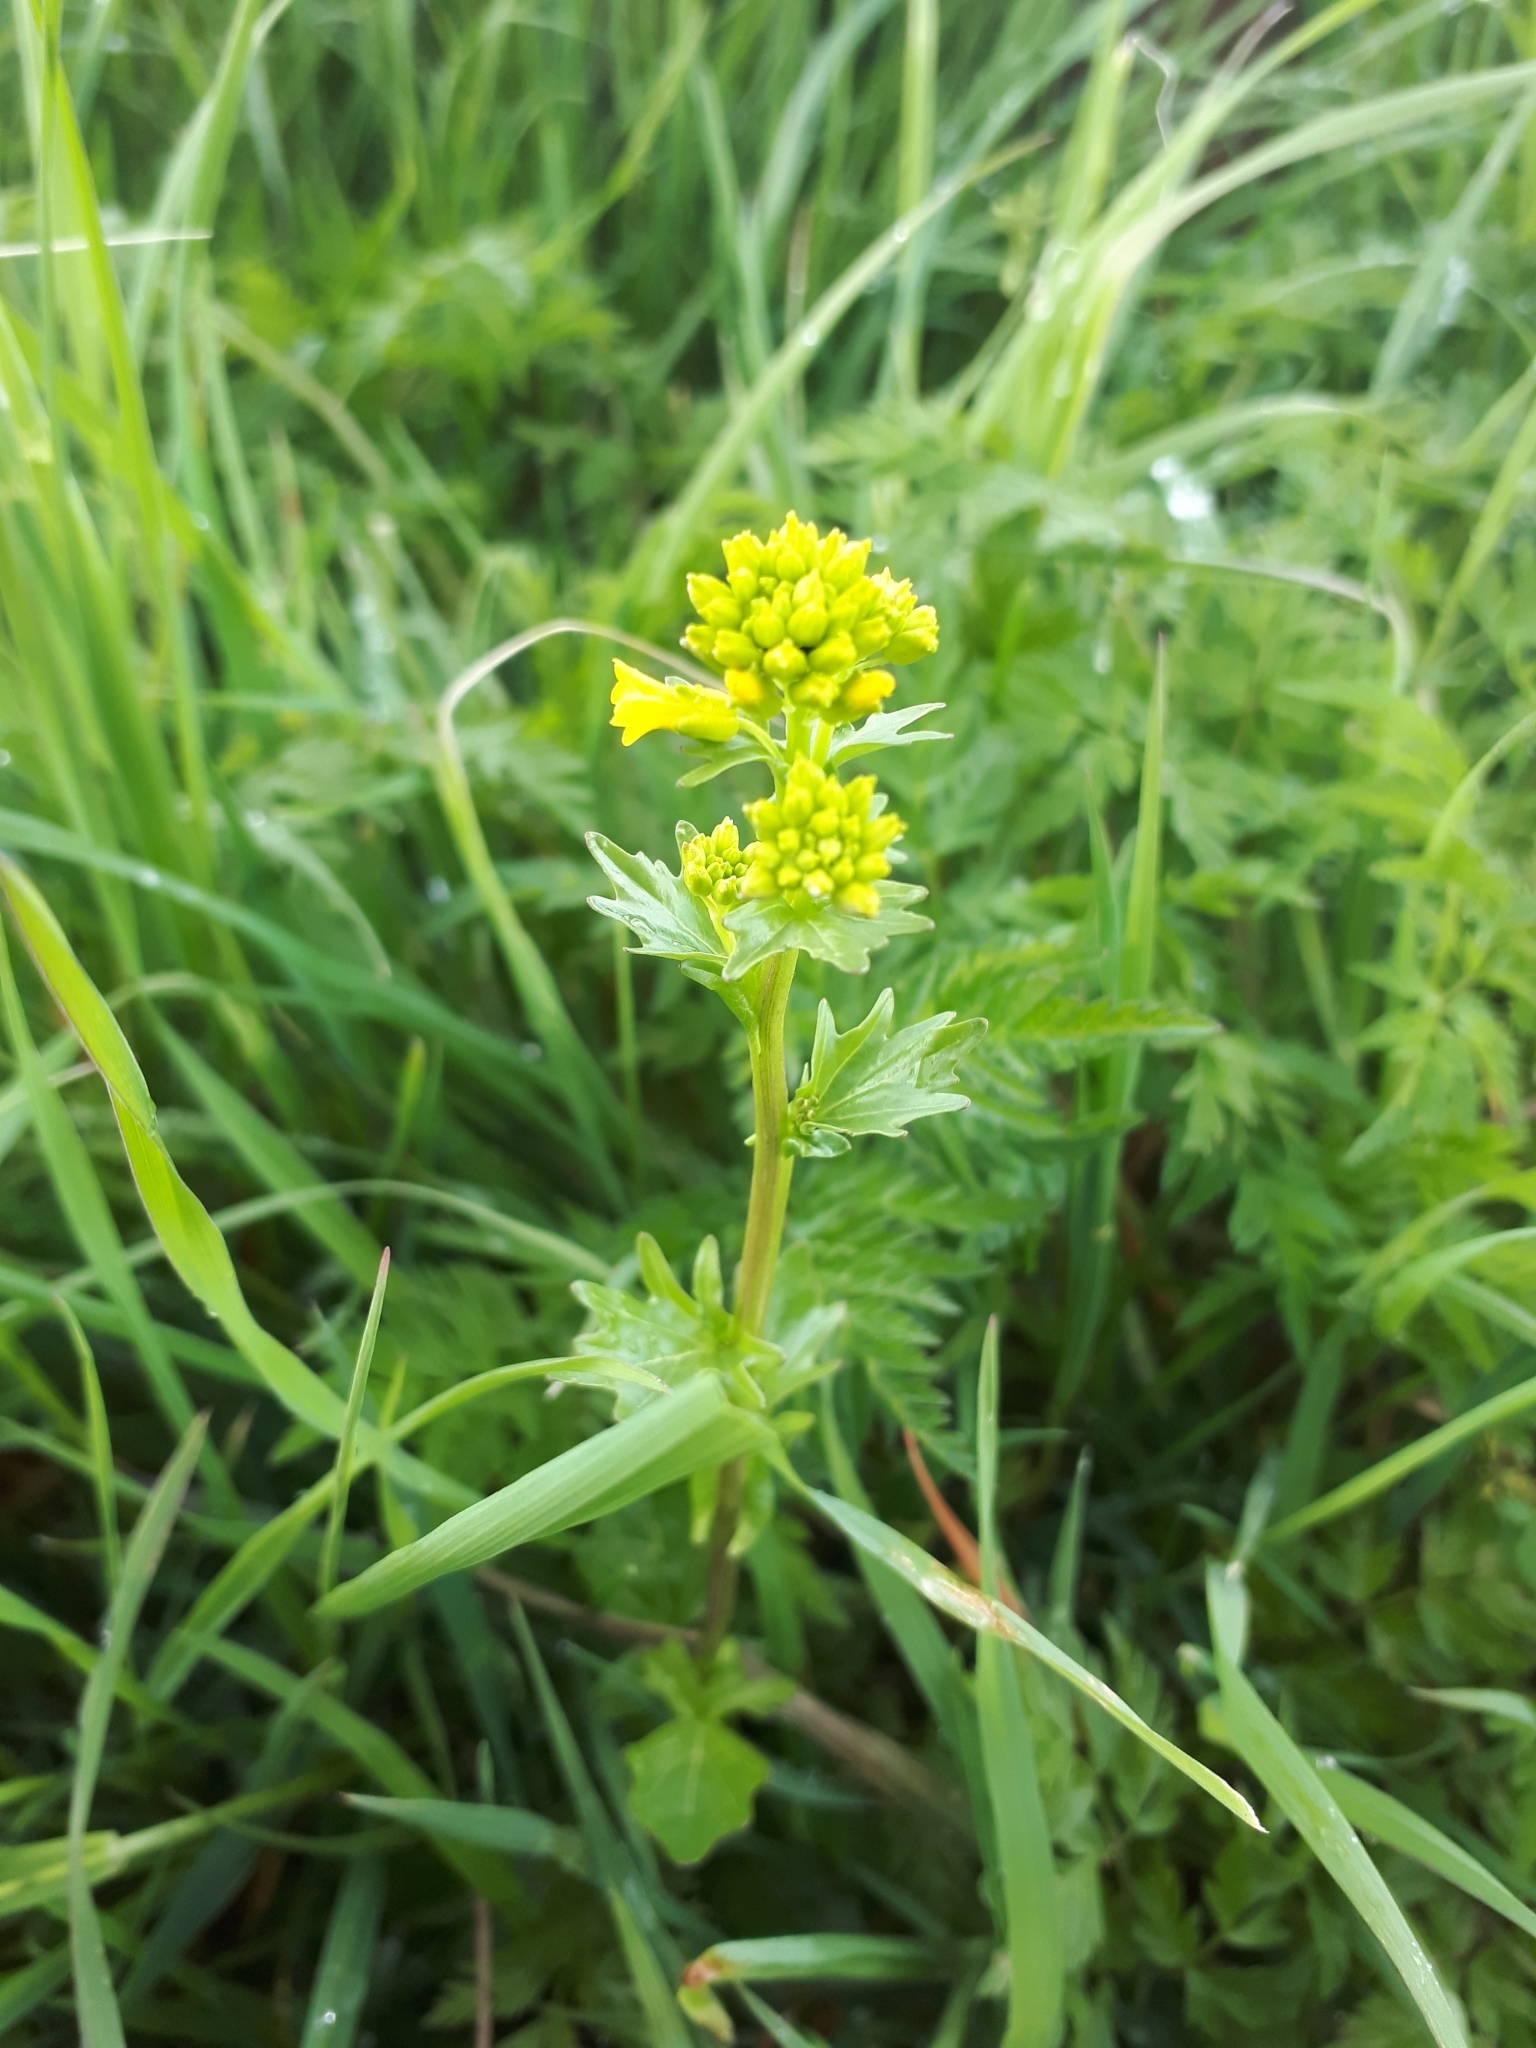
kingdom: Plantae
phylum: Tracheophyta
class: Magnoliopsida
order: Brassicales
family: Brassicaceae
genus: Barbarea
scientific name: Barbarea vulgaris
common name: Cressy-greens
